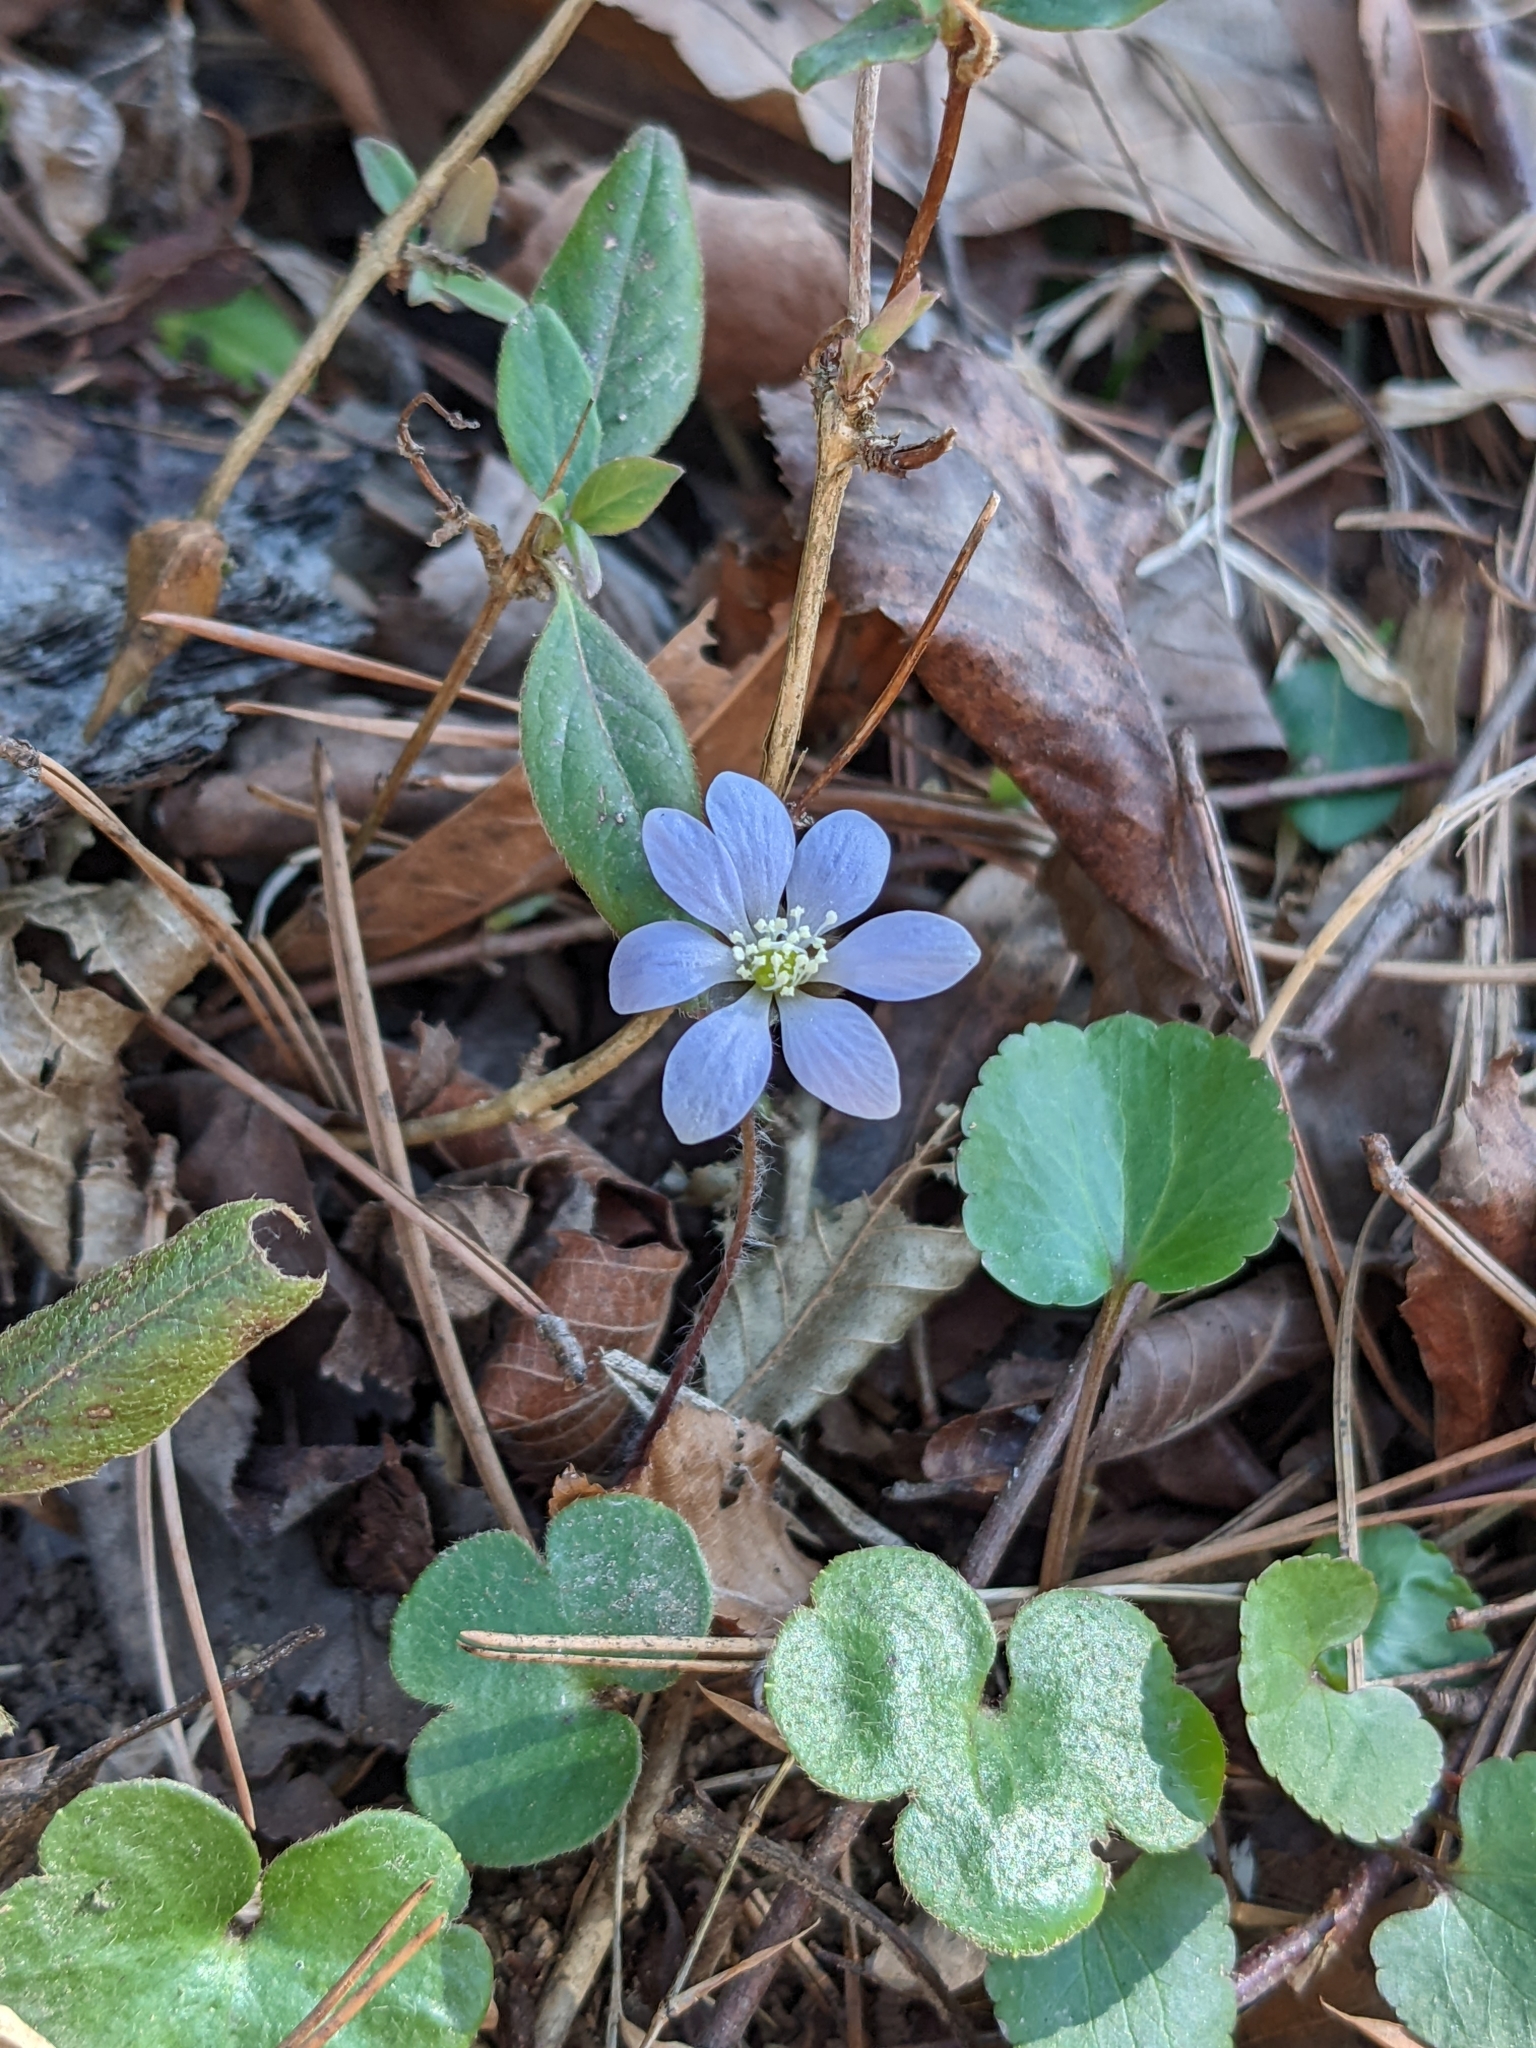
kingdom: Plantae
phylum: Tracheophyta
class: Magnoliopsida
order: Ranunculales
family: Ranunculaceae
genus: Hepatica
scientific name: Hepatica americana
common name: American hepatica
